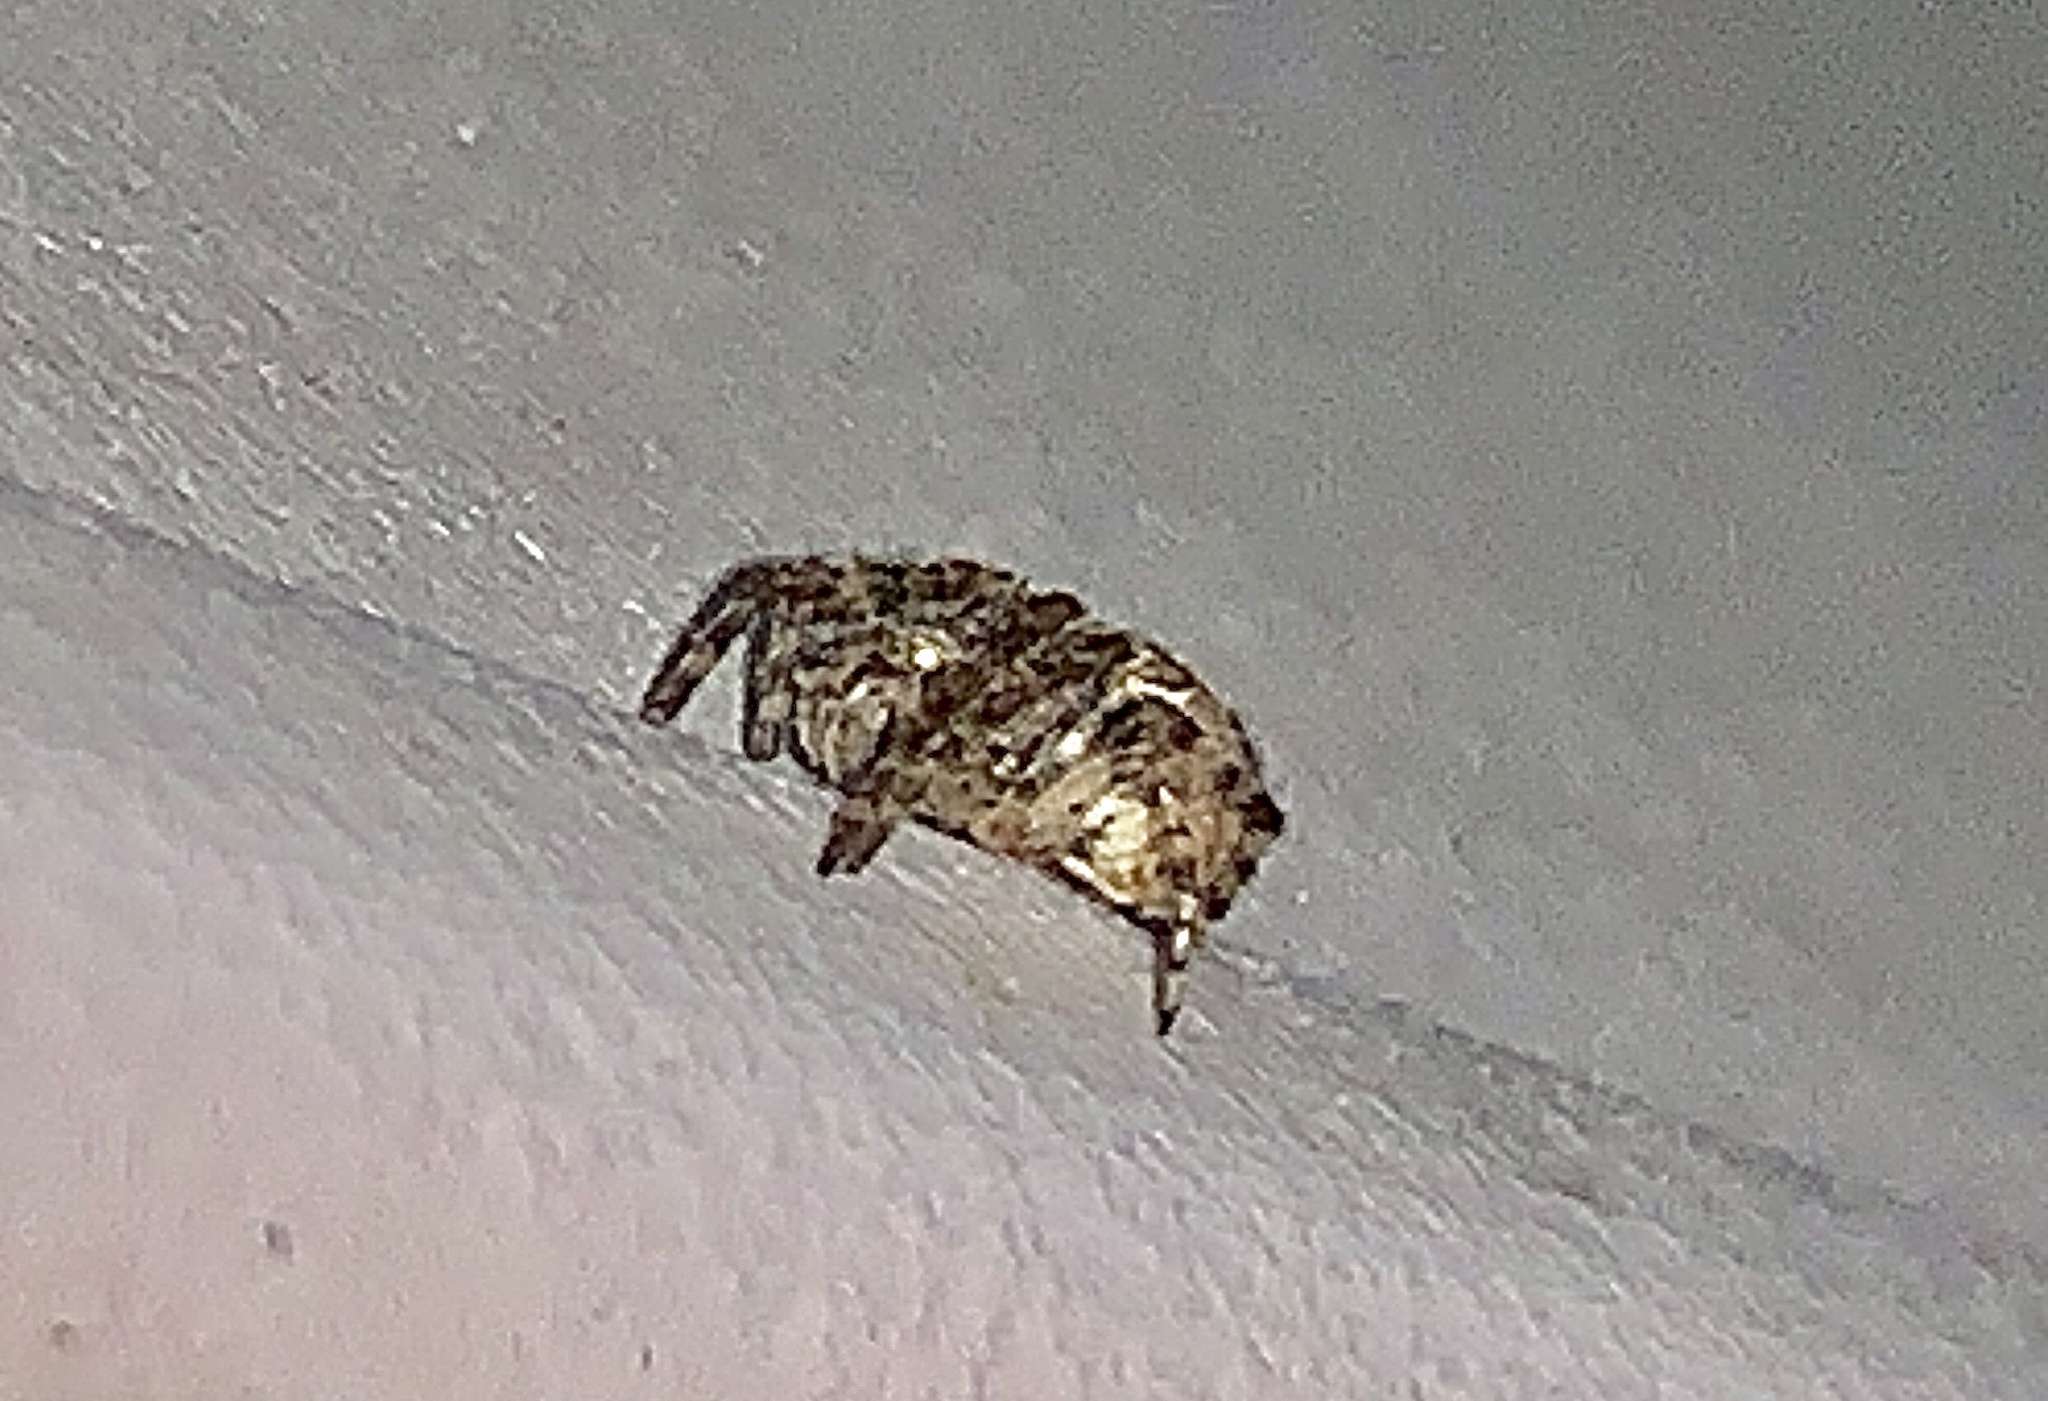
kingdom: Animalia
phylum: Arthropoda
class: Arachnida
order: Araneae
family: Araneidae
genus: Larinioides
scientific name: Larinioides sclopetarius
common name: Bridge orbweaver
